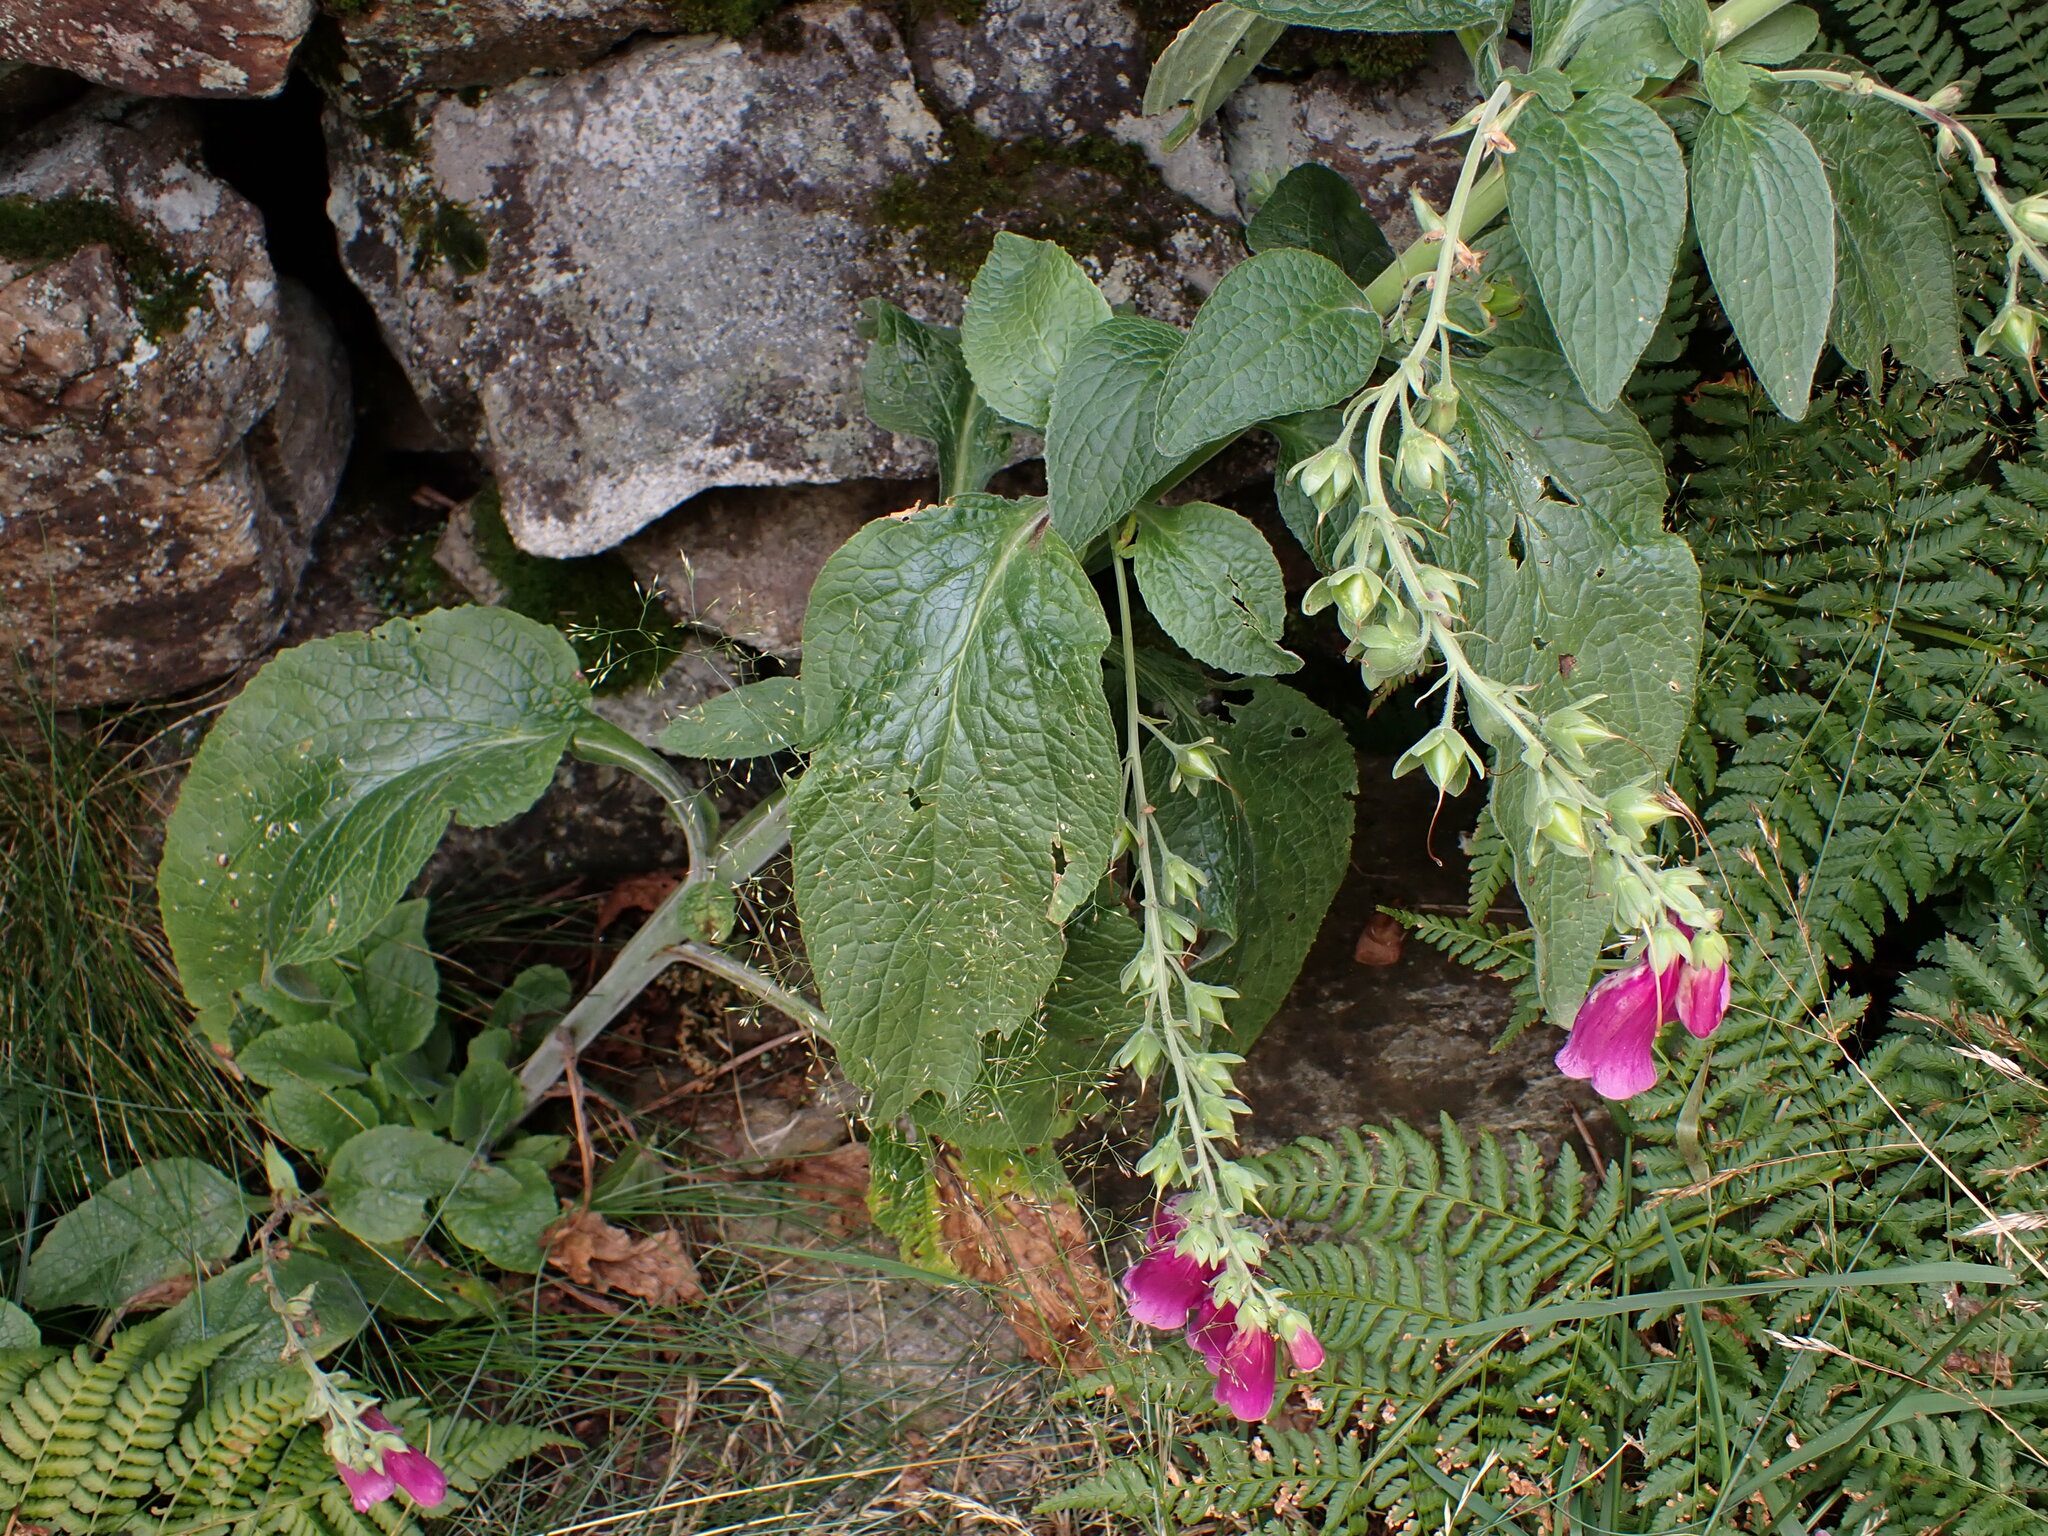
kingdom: Plantae
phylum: Tracheophyta
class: Magnoliopsida
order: Lamiales
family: Plantaginaceae
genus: Digitalis
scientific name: Digitalis purpurea
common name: Foxglove
